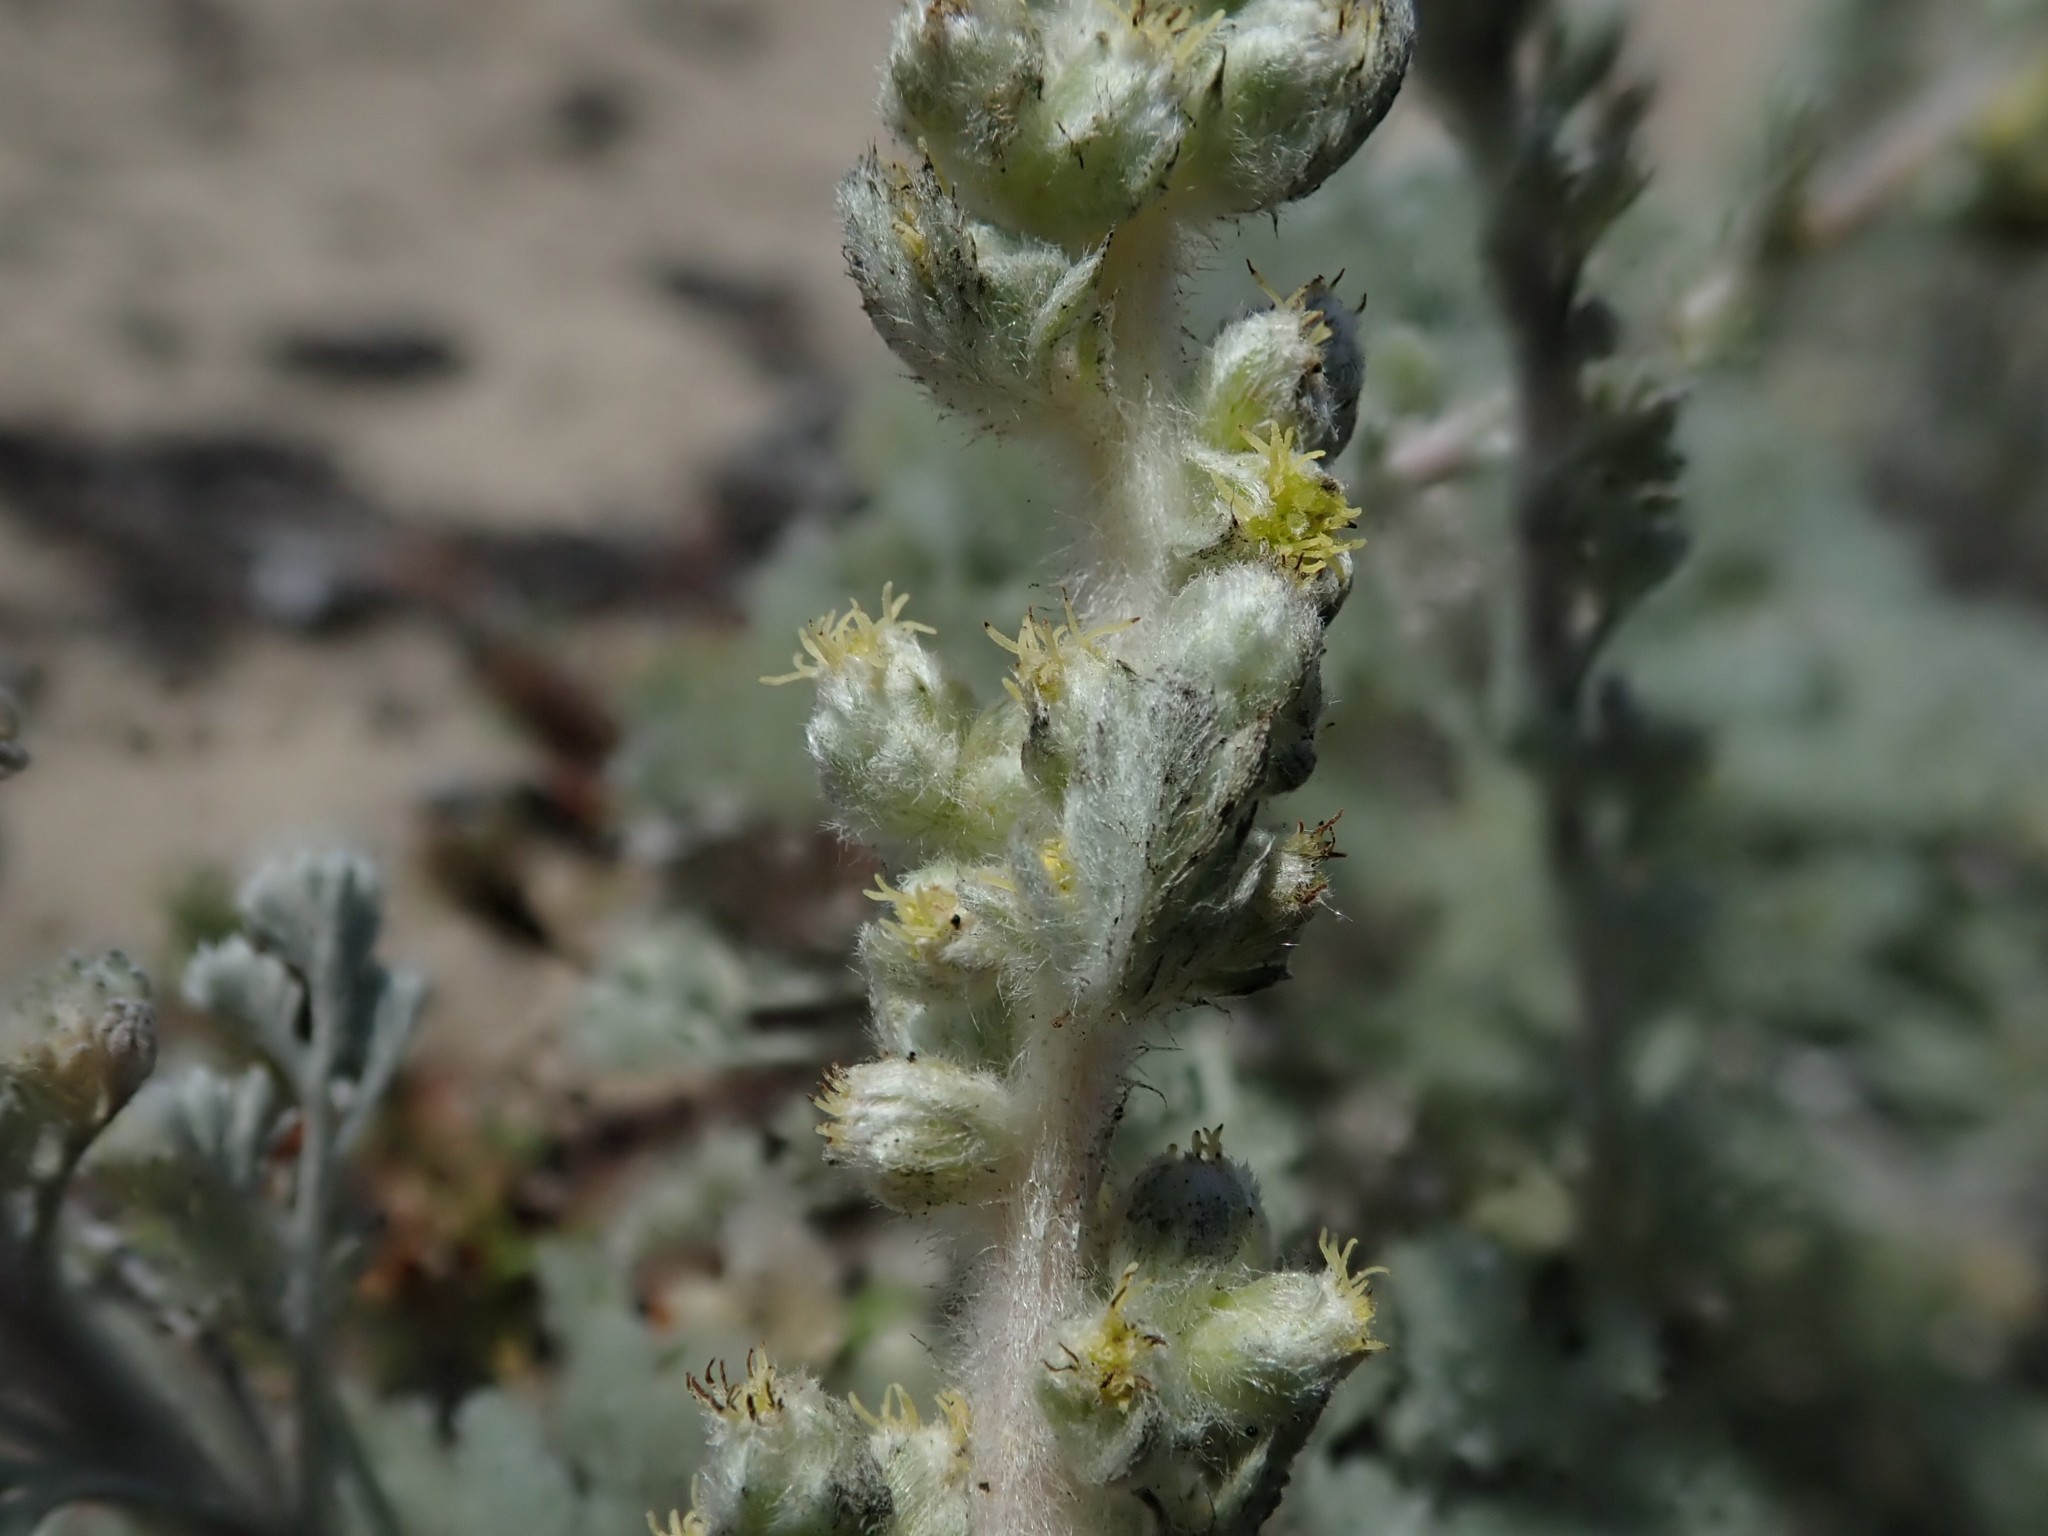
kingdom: Plantae
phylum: Tracheophyta
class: Magnoliopsida
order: Asterales
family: Asteraceae
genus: Artemisia
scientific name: Artemisia pycnocephala
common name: Coastal sagewort
